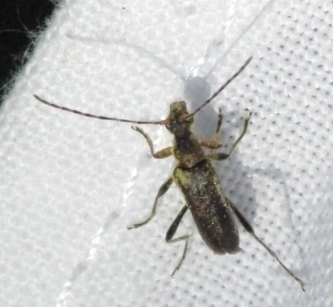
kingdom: Animalia
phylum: Arthropoda
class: Insecta
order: Coleoptera
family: Cerambycidae
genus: Grammoptera
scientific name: Grammoptera ruficornis
